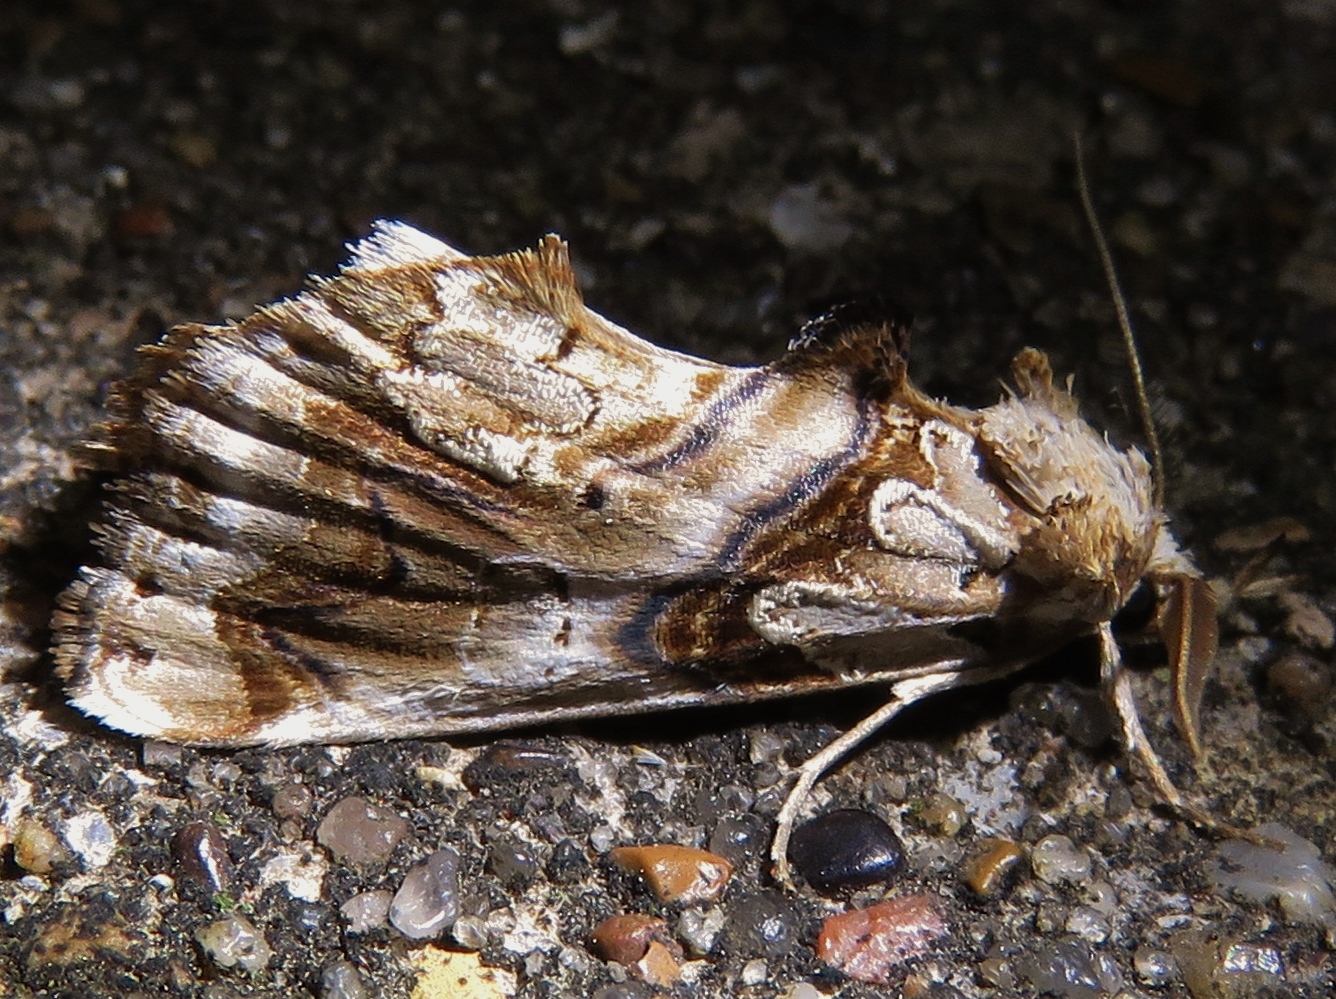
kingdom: Animalia
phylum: Arthropoda
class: Insecta
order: Lepidoptera
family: Erebidae
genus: Plusiodonta
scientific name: Plusiodonta compressipalpis
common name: Moonseed moth
